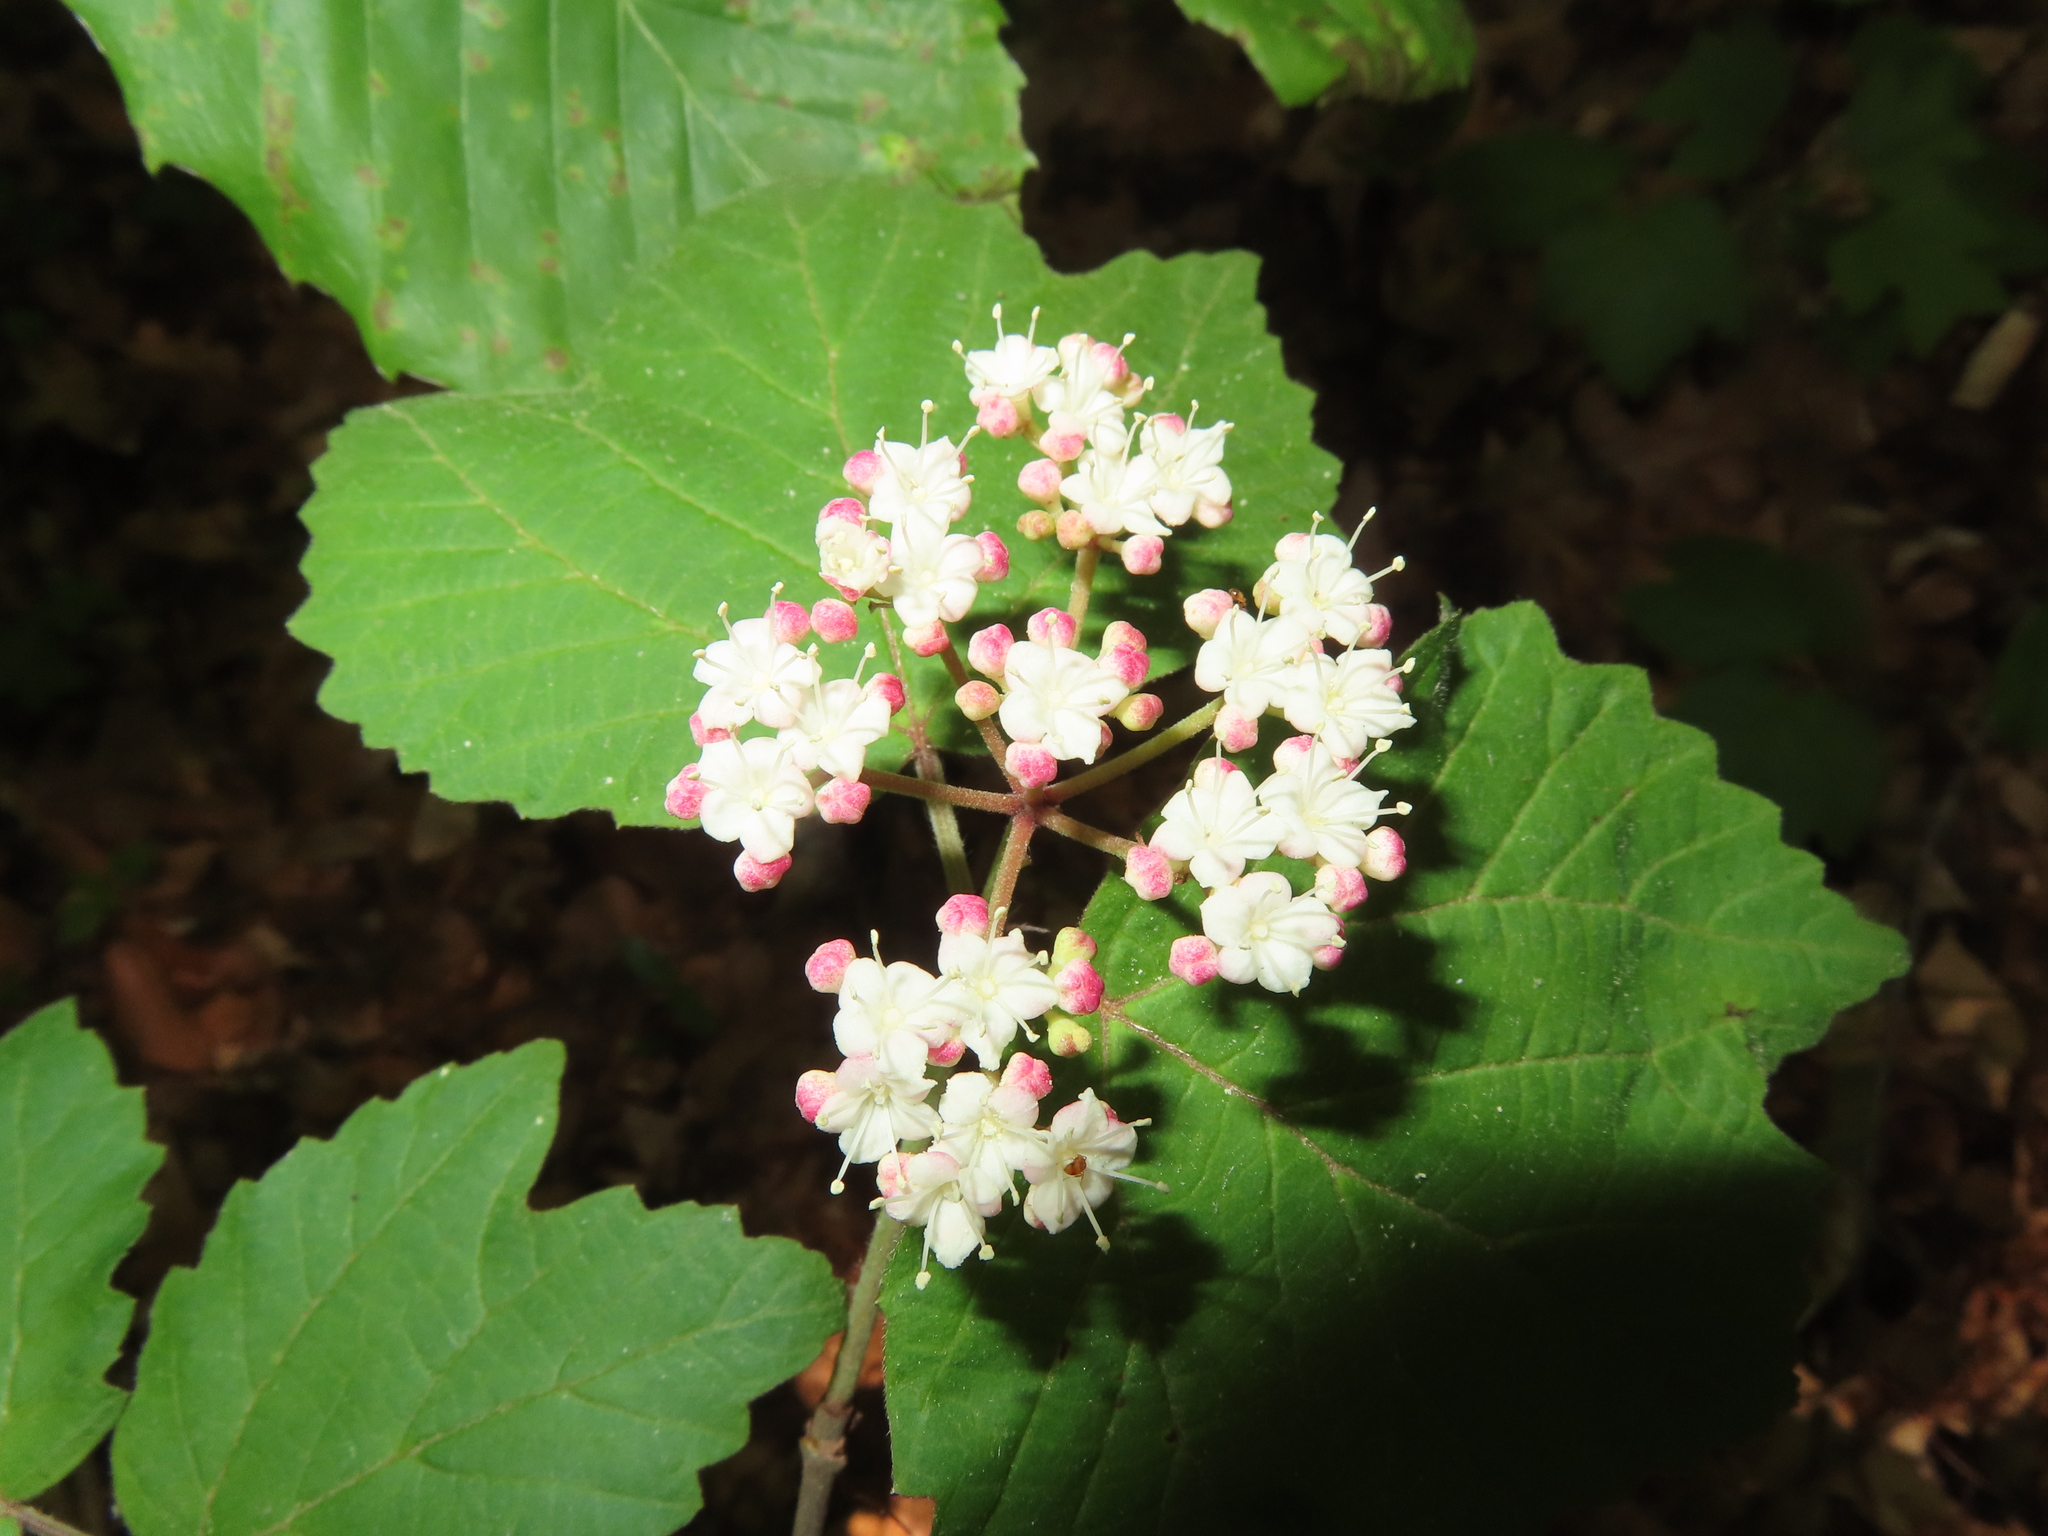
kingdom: Plantae
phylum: Tracheophyta
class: Magnoliopsida
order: Dipsacales
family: Viburnaceae
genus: Viburnum
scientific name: Viburnum acerifolium
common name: Dockmackie
